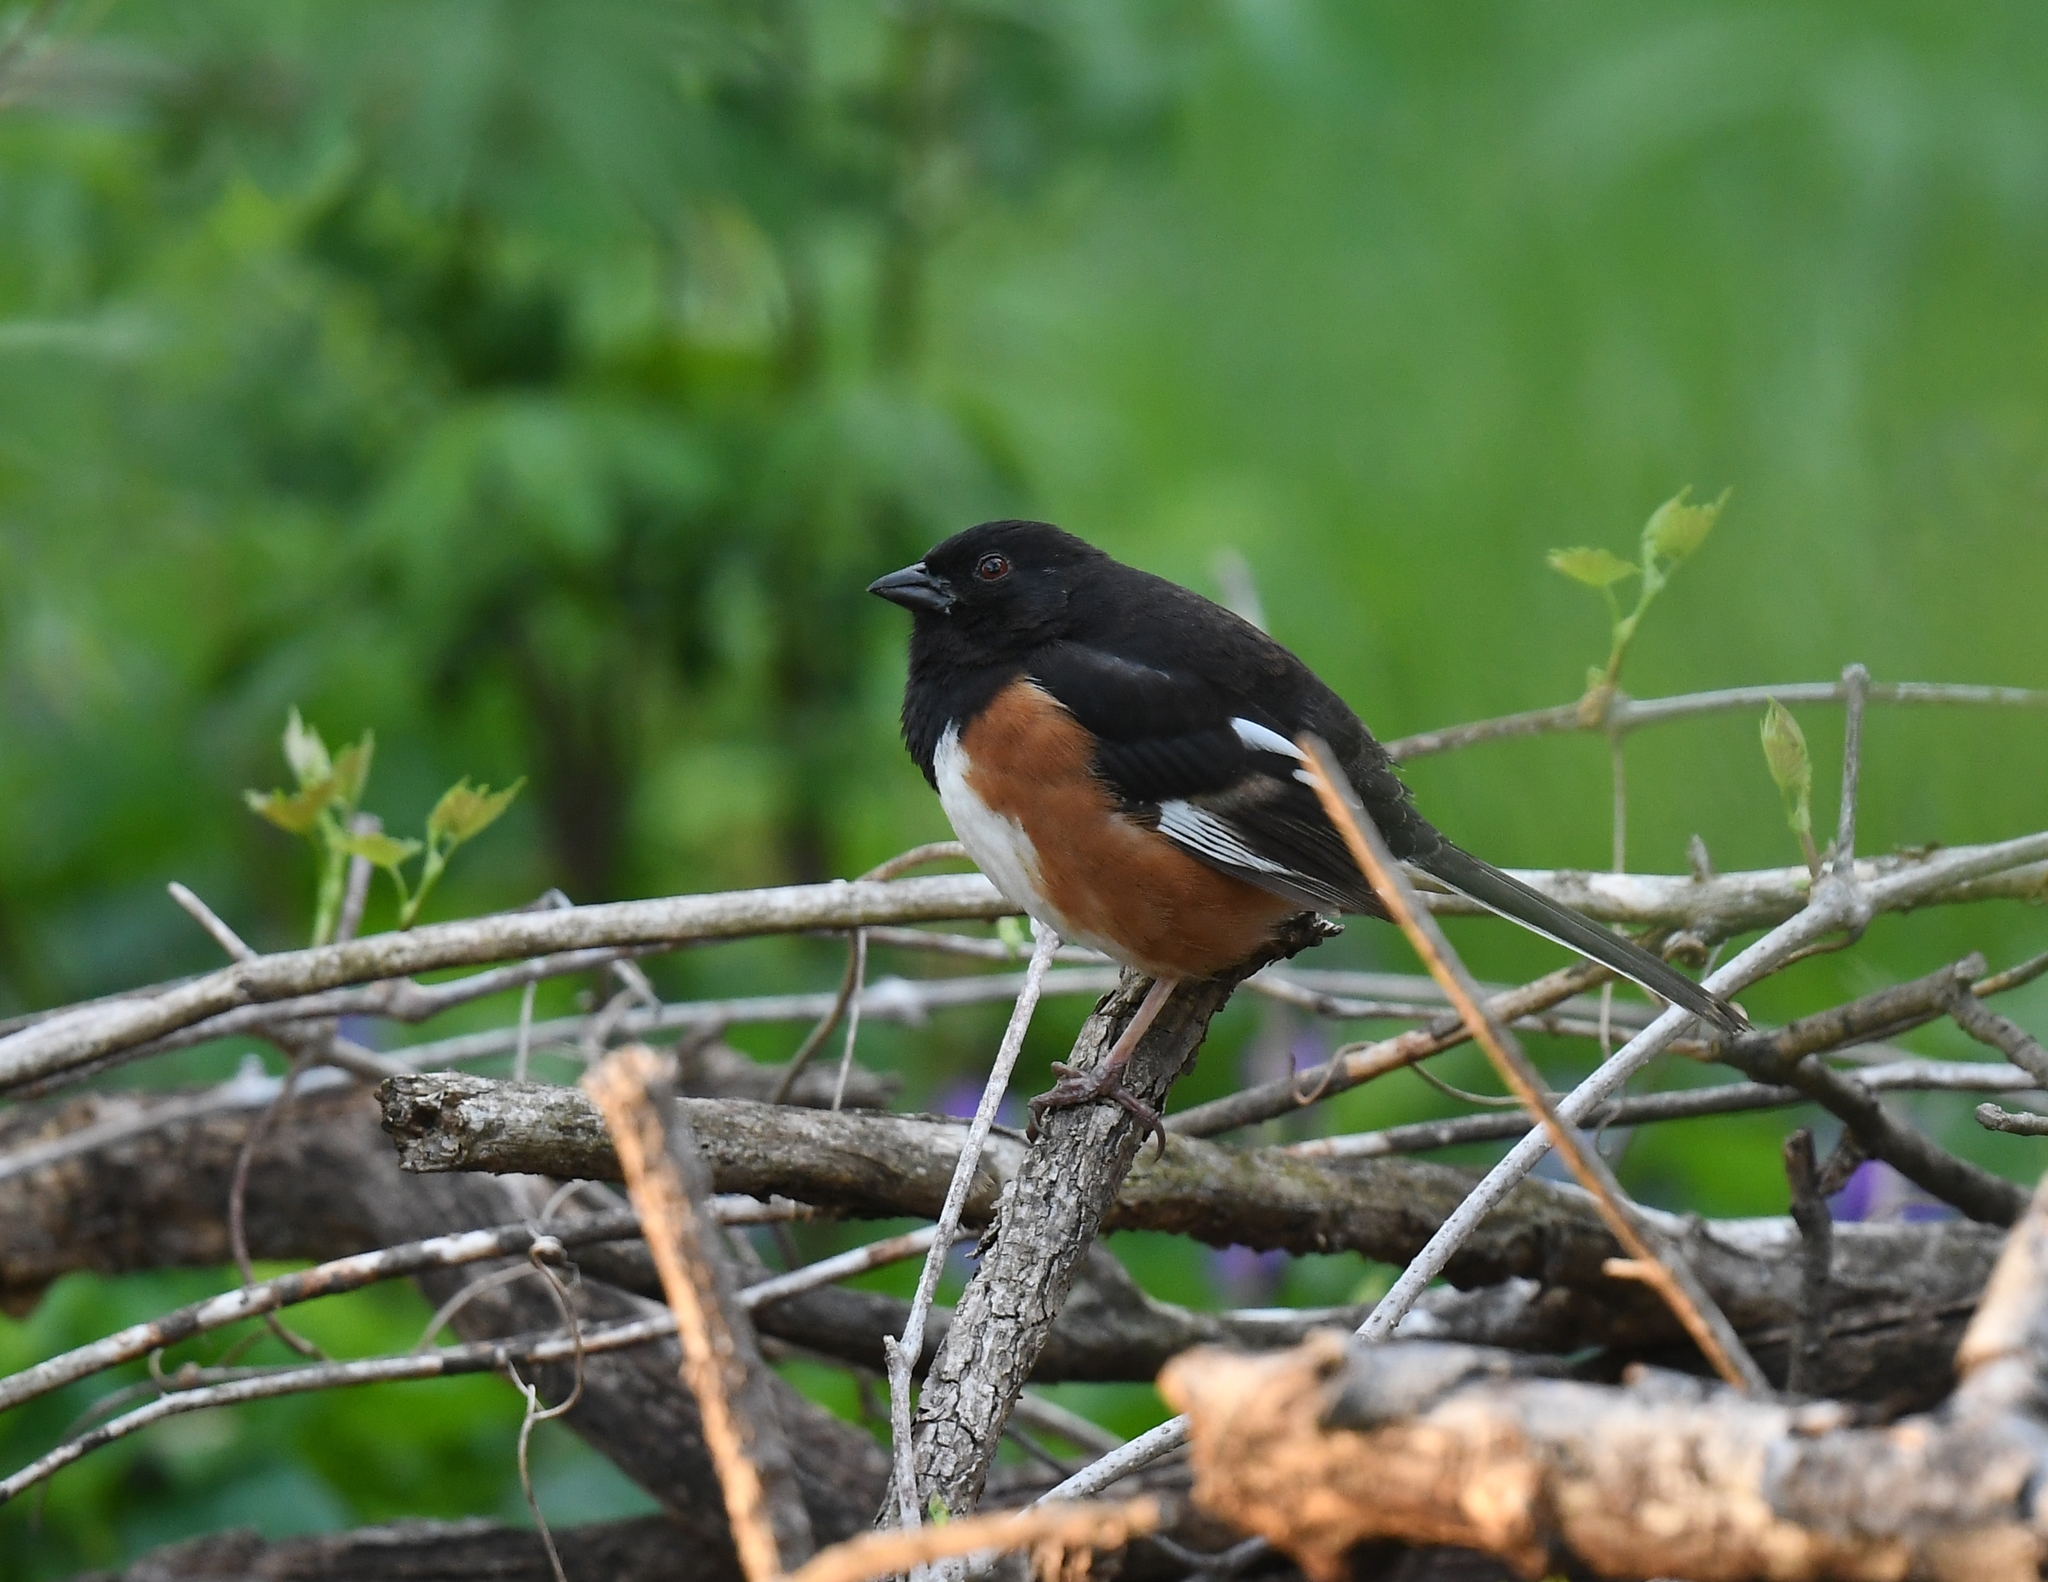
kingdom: Animalia
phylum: Chordata
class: Aves
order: Passeriformes
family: Passerellidae
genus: Pipilo
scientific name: Pipilo erythrophthalmus
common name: Eastern towhee
